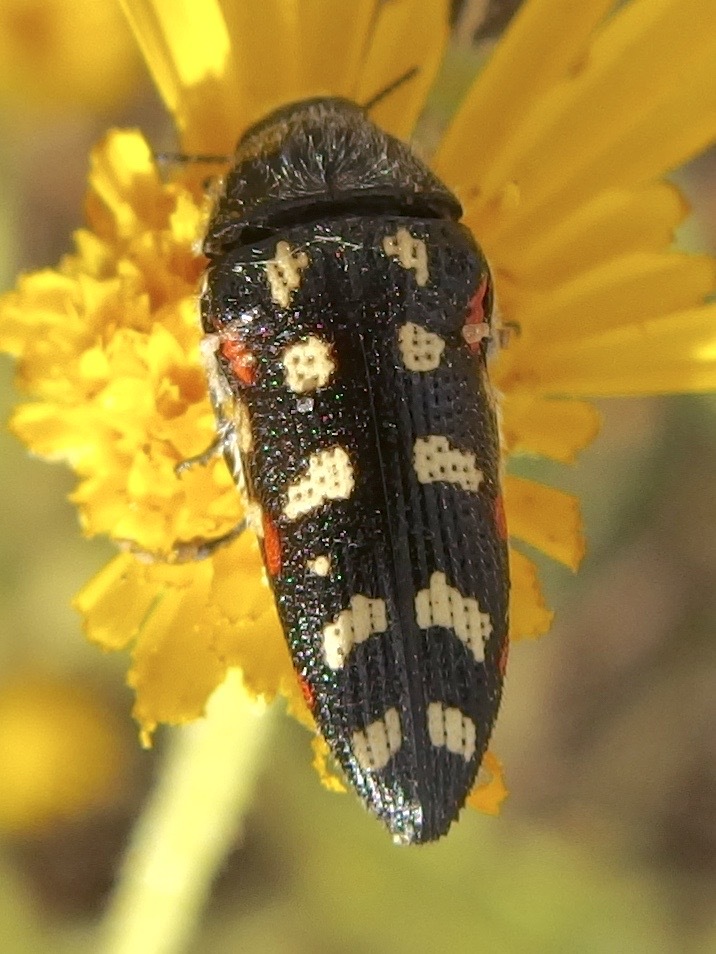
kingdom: Animalia
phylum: Arthropoda
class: Insecta
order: Coleoptera
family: Buprestidae
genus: Acmaeodera
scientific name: Acmaeodera gibbula
